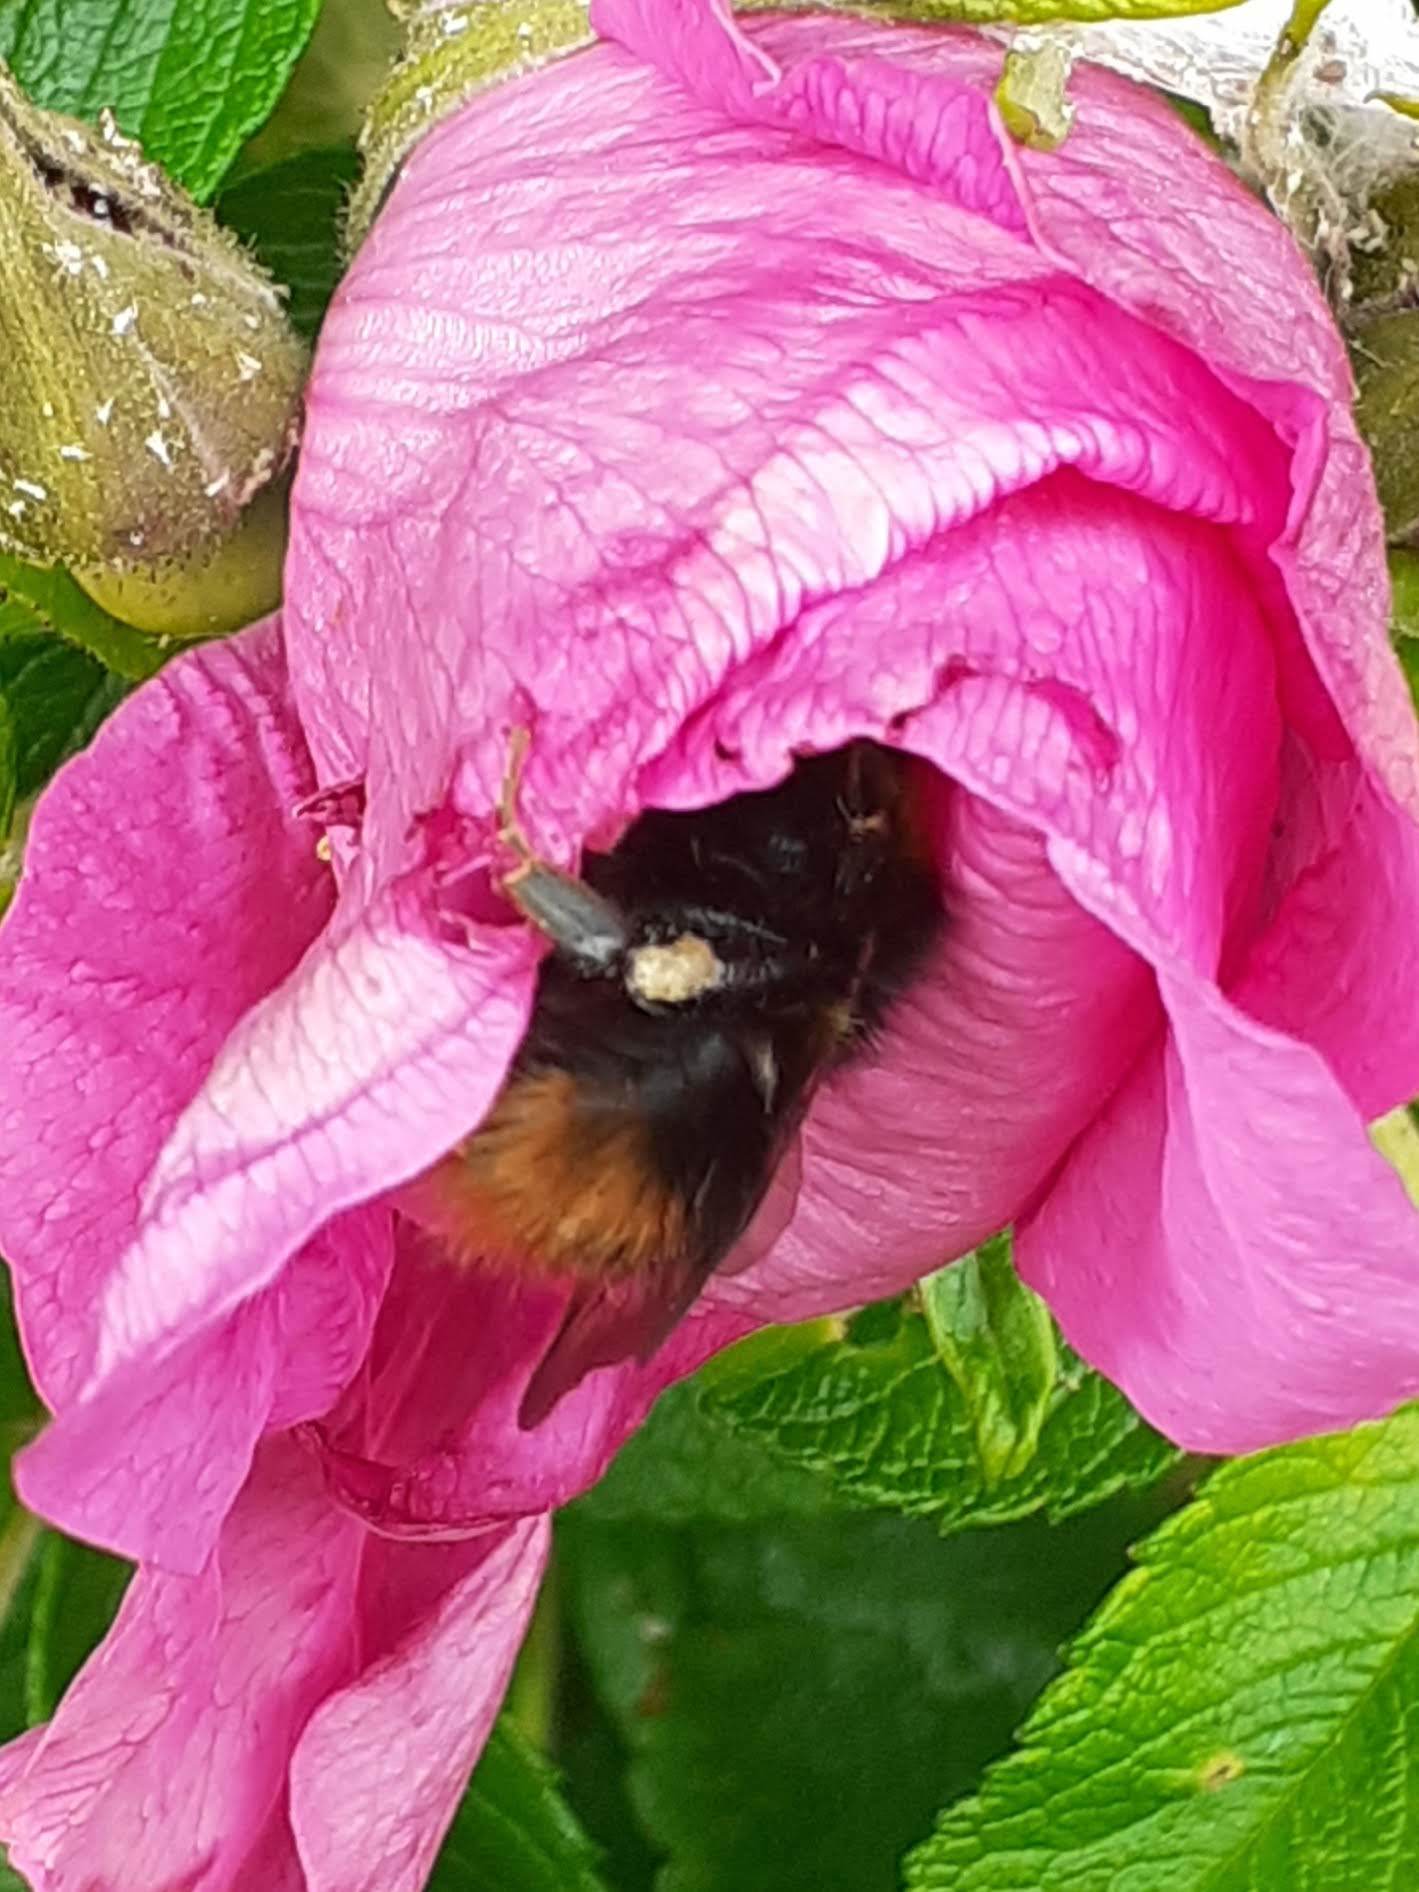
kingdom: Animalia
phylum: Arthropoda
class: Insecta
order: Hymenoptera
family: Apidae
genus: Bombus
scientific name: Bombus pratorum
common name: Early humble-bee
